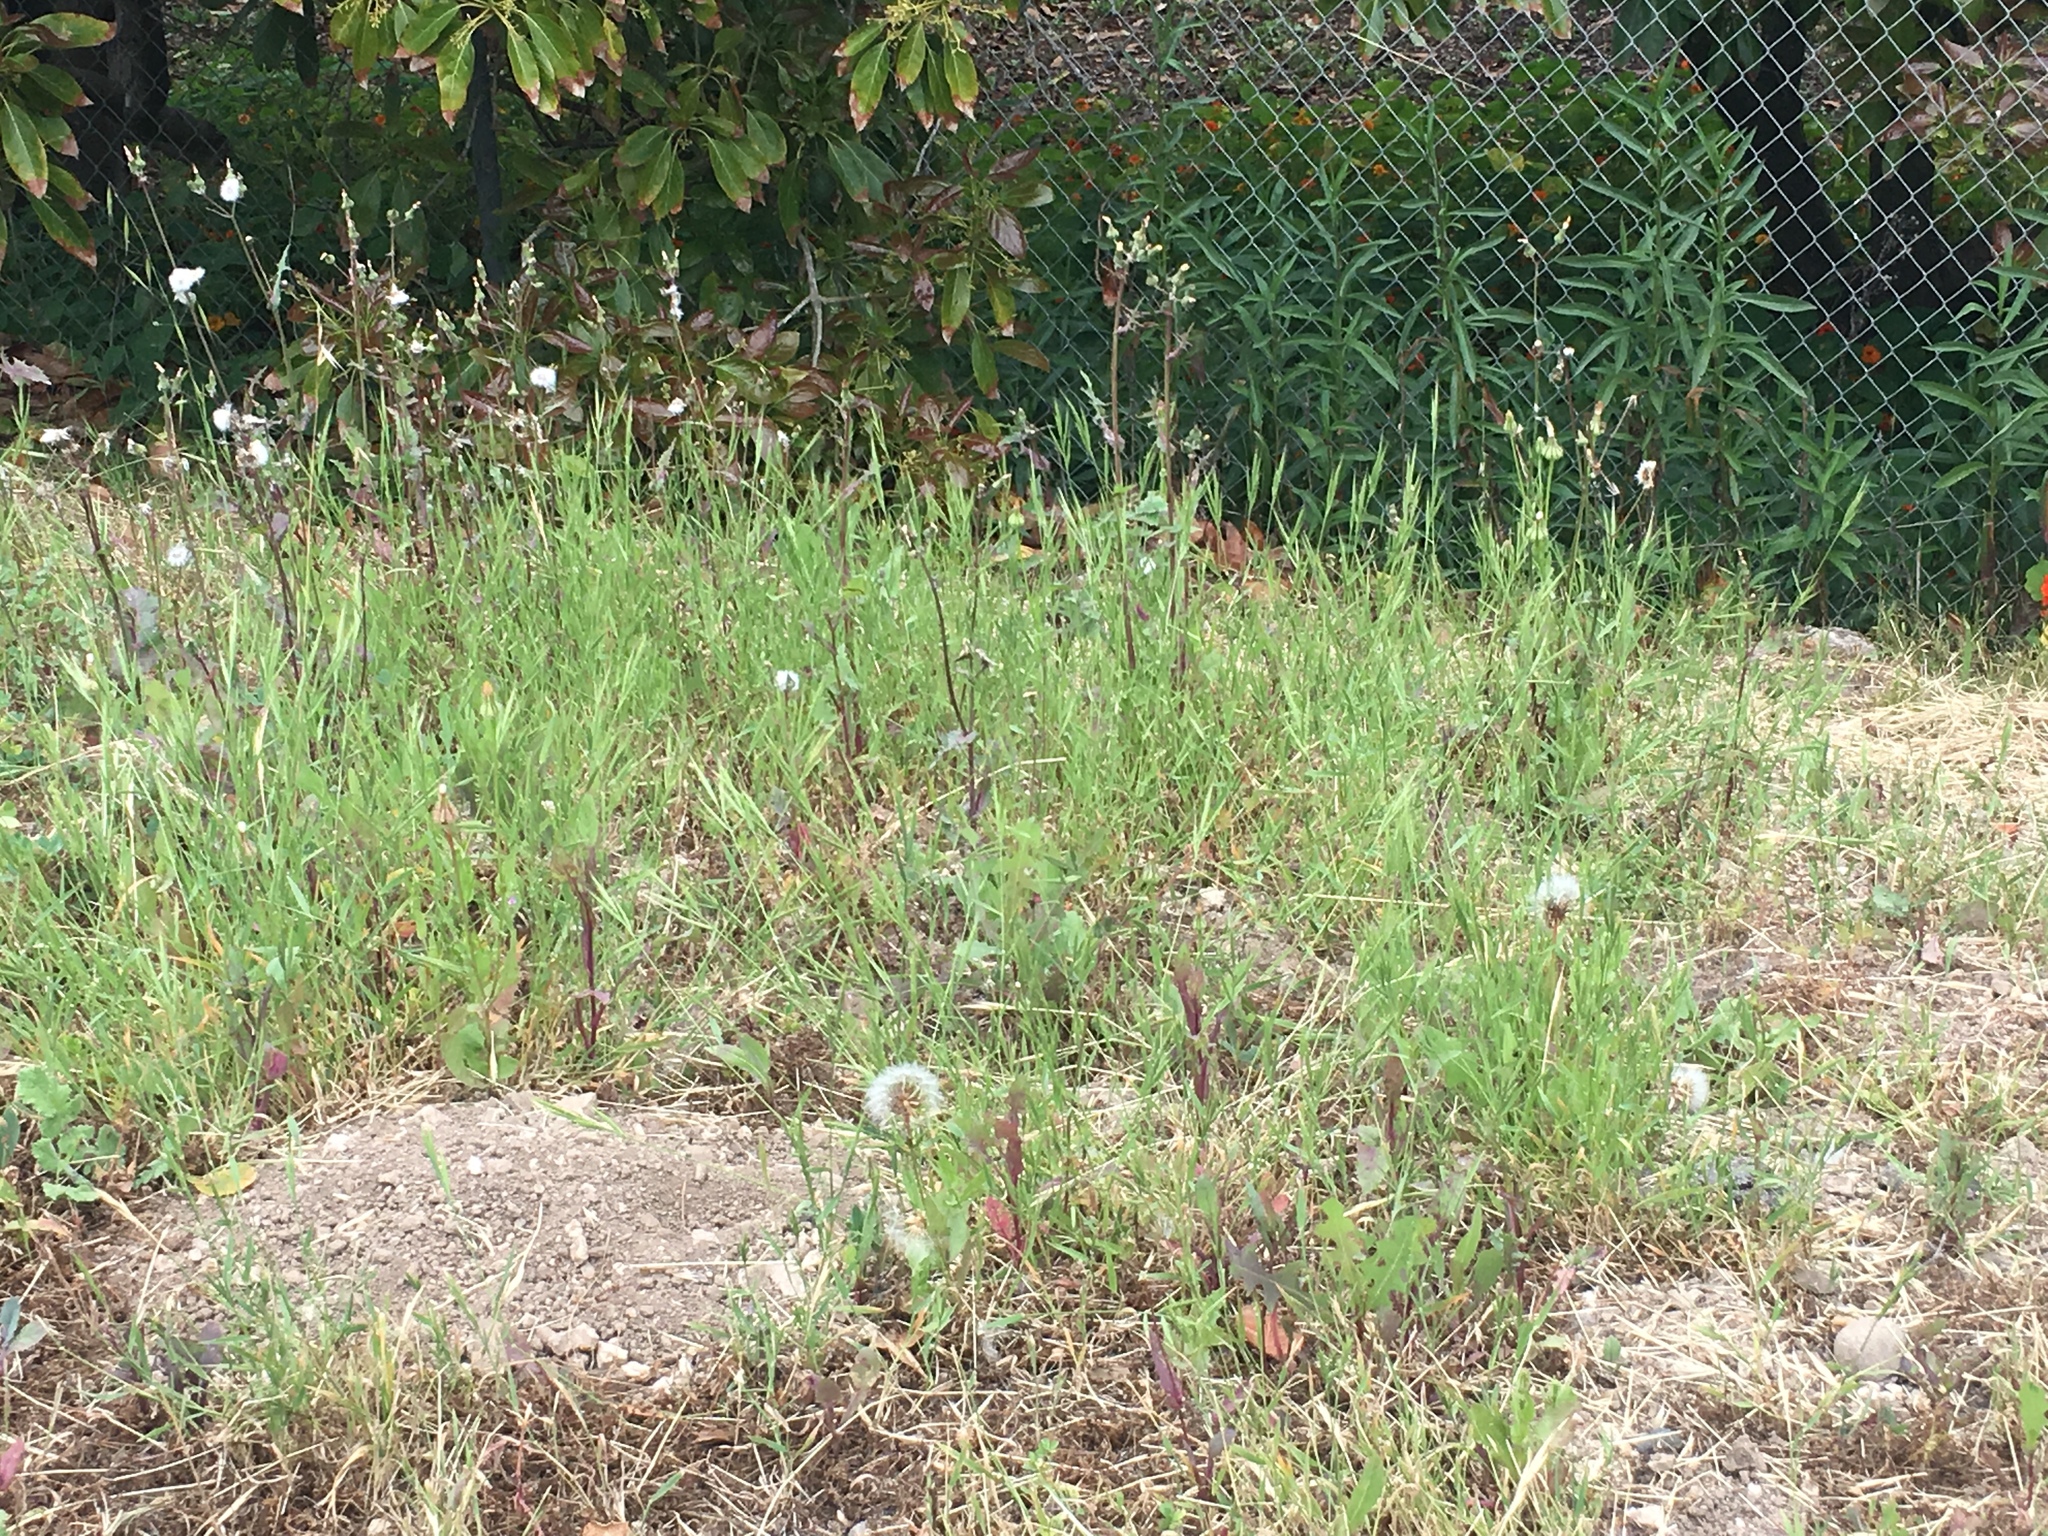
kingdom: Plantae
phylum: Tracheophyta
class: Magnoliopsida
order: Asterales
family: Asteraceae
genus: Urospermum
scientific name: Urospermum picroides
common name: False hawkbit
